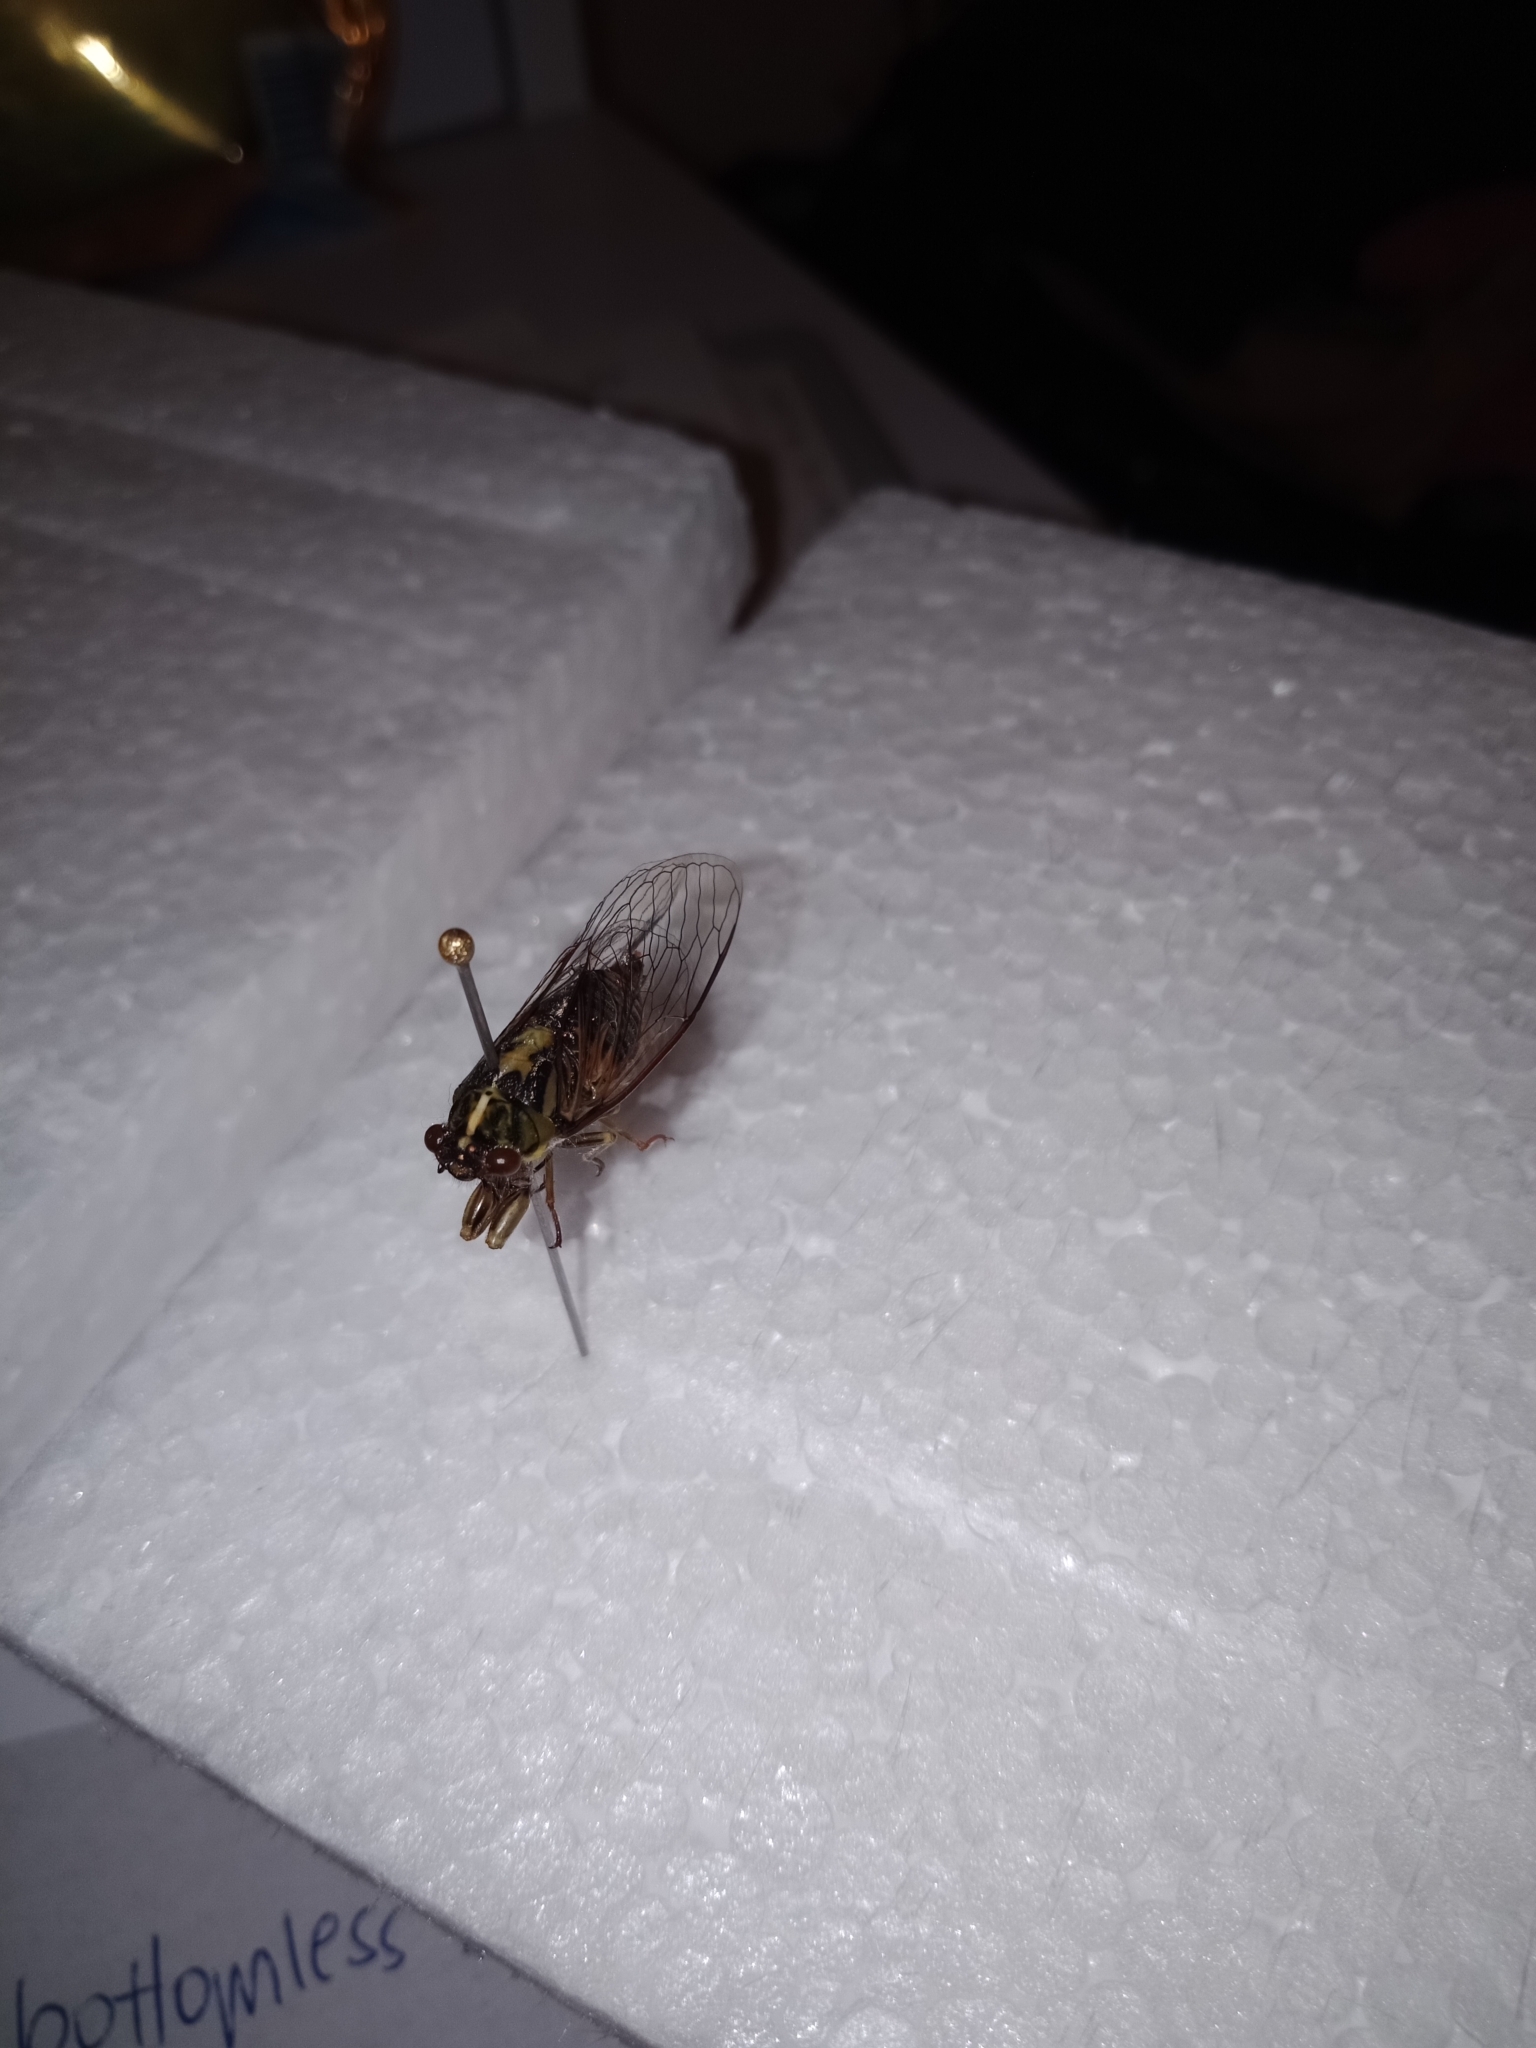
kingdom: Animalia
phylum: Arthropoda
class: Insecta
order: Hemiptera
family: Cicadidae
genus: Kikihia
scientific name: Kikihia muta
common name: Variable cicada
